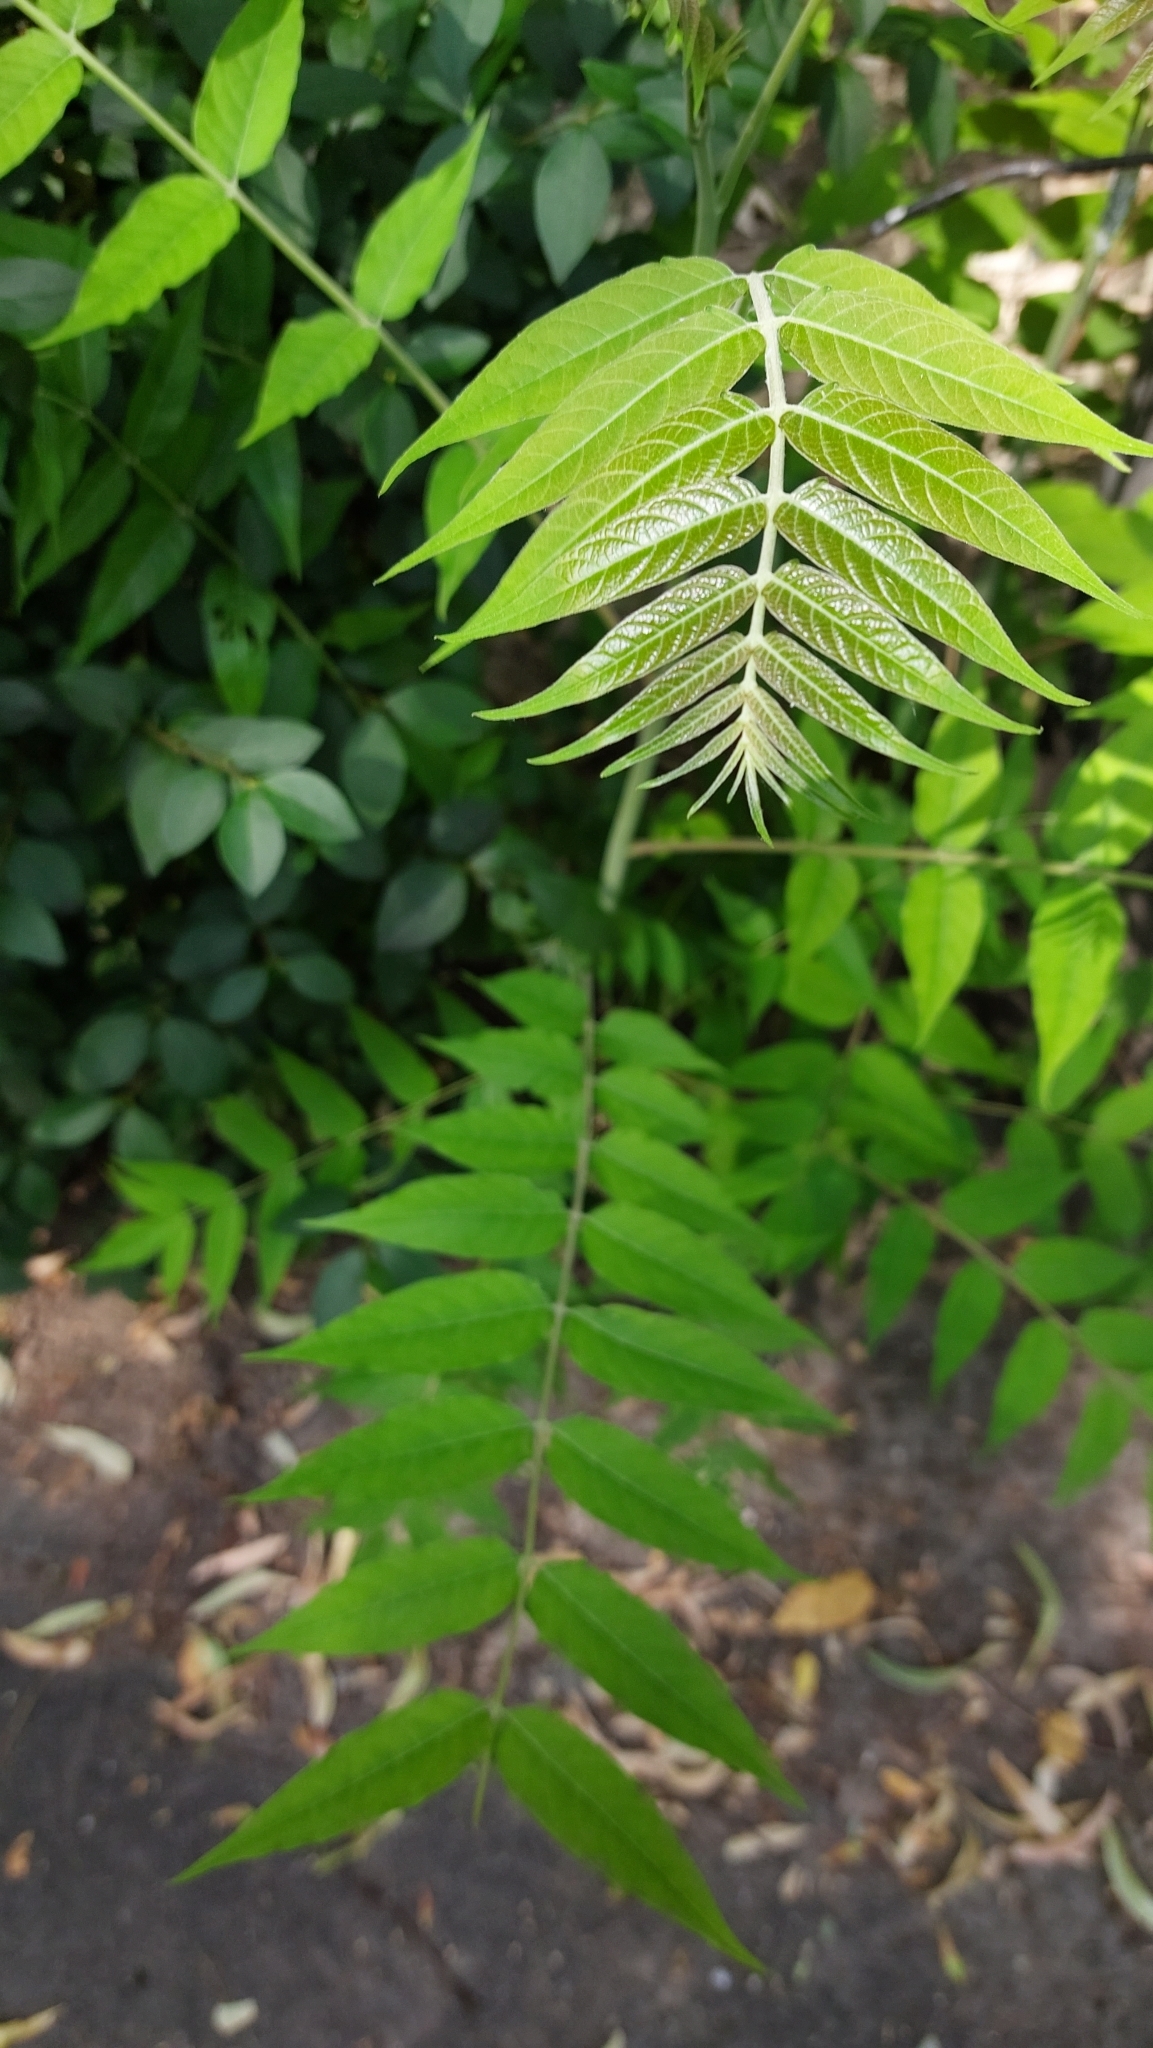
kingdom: Plantae
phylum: Tracheophyta
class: Magnoliopsida
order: Sapindales
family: Simaroubaceae
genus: Ailanthus
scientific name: Ailanthus altissima
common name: Tree-of-heaven
